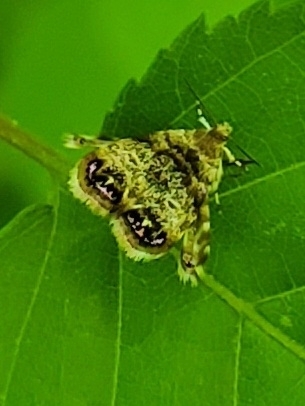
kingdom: Animalia
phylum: Arthropoda
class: Insecta
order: Lepidoptera
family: Choreutidae
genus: Brenthia
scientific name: Brenthia pavonacella
